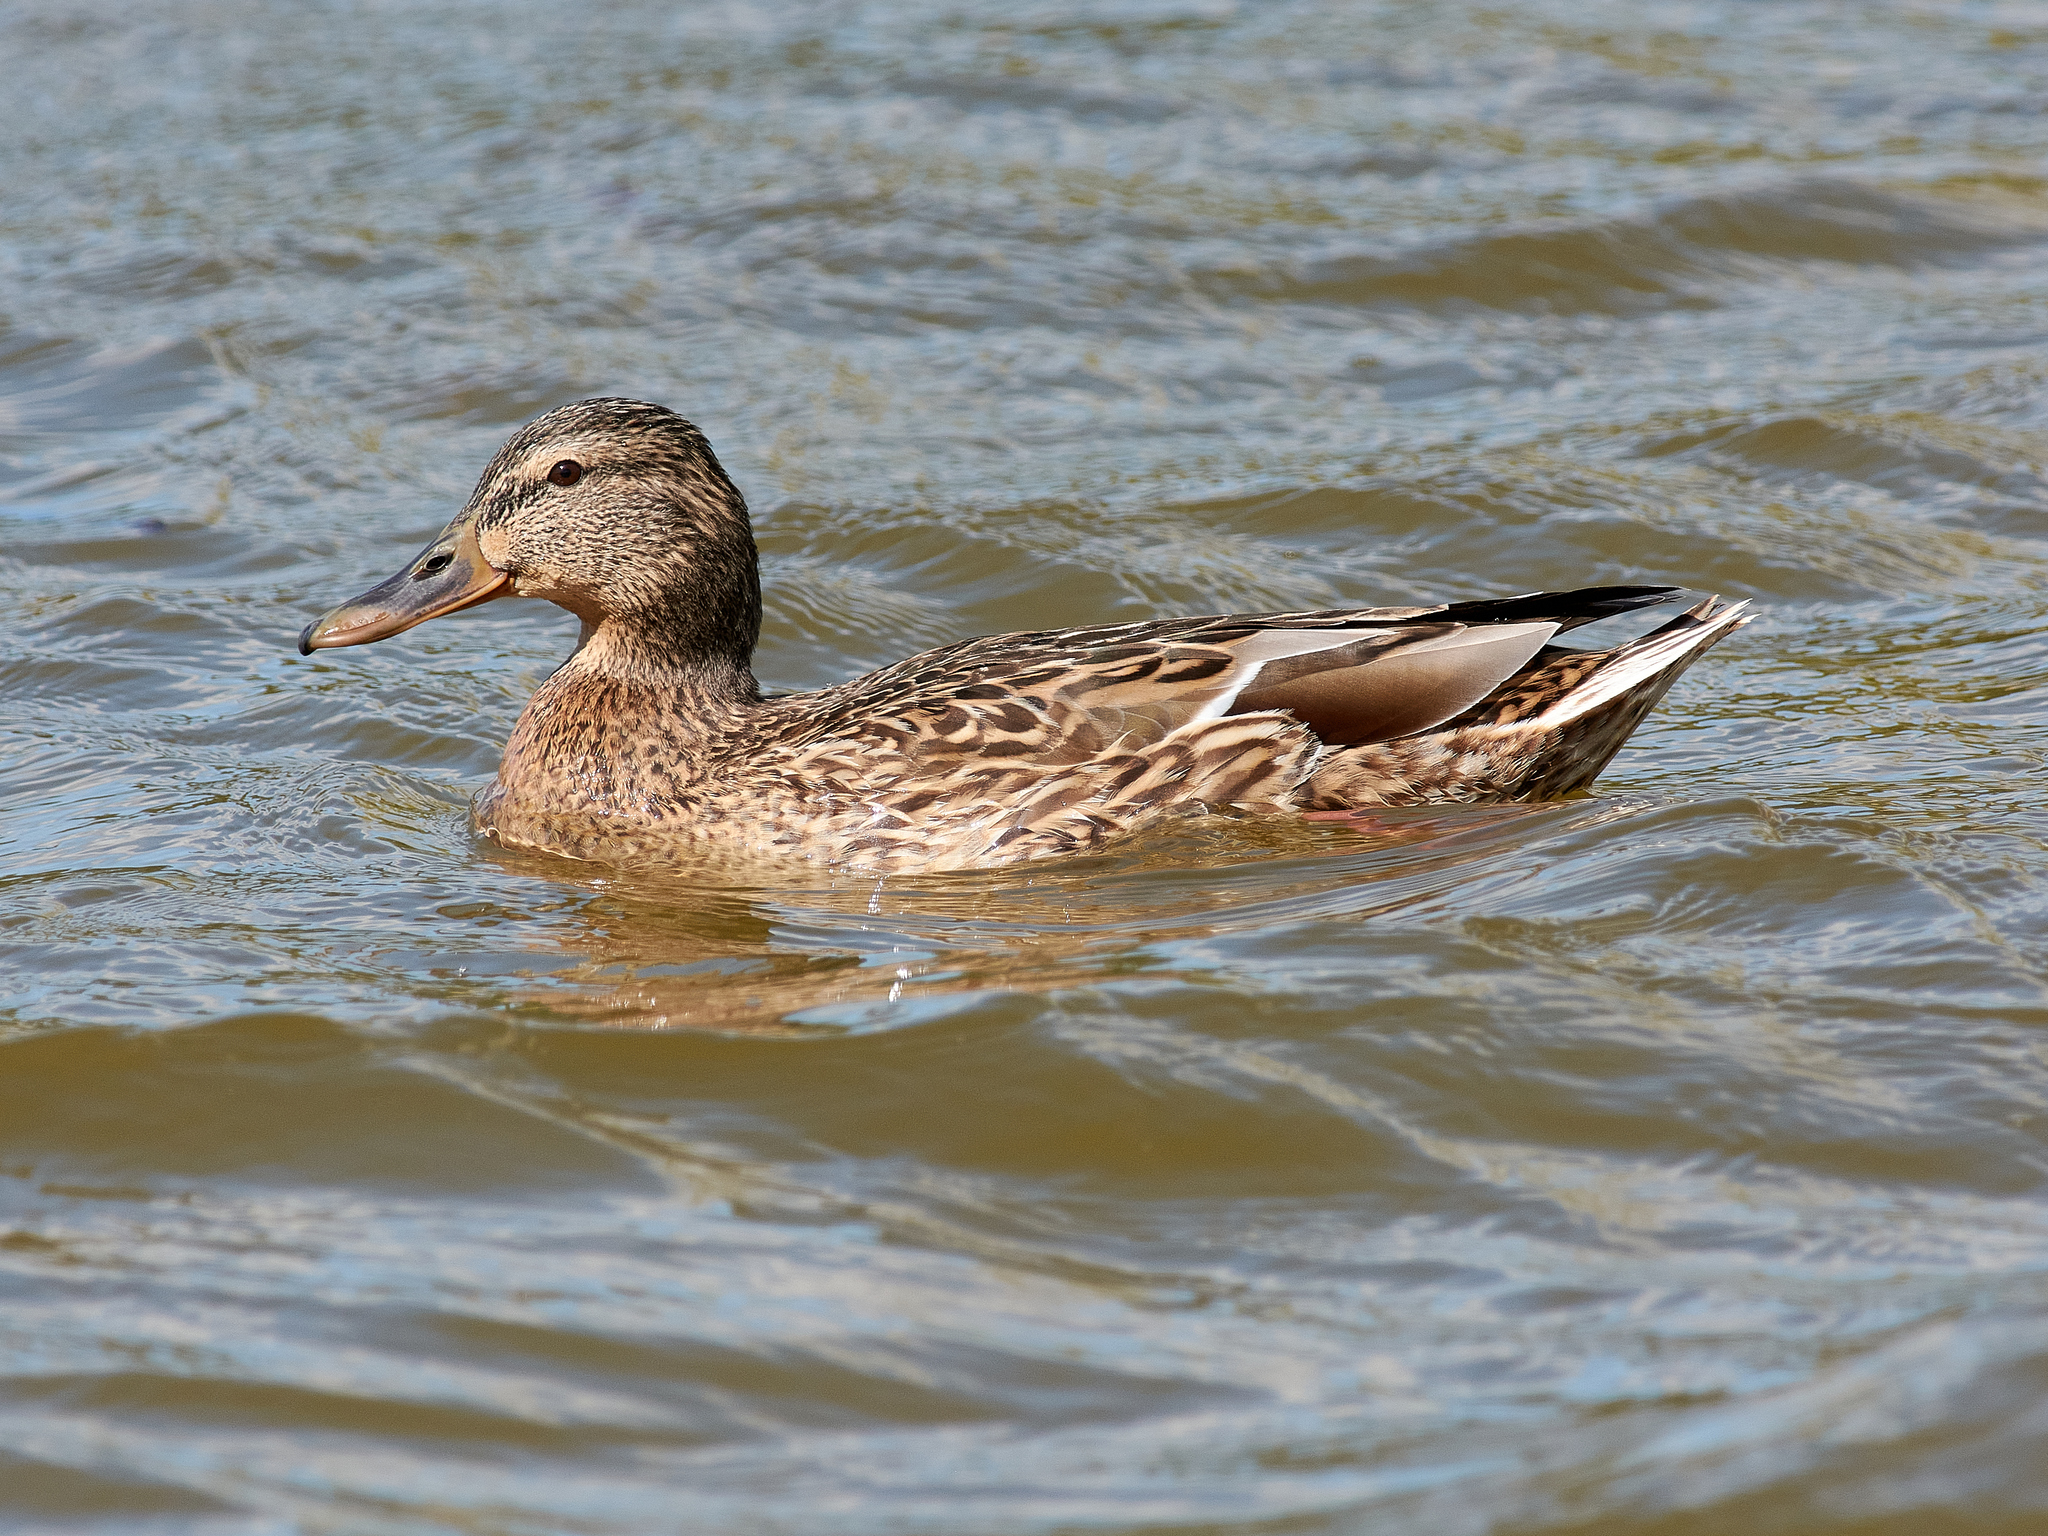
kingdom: Animalia
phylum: Chordata
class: Aves
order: Anseriformes
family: Anatidae
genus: Anas
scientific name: Anas platyrhynchos
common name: Mallard
